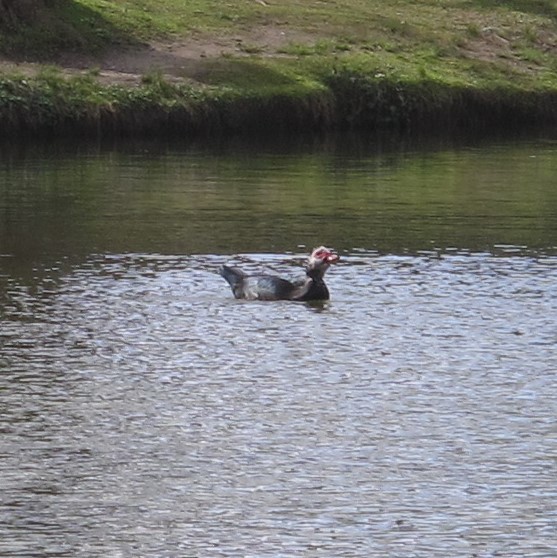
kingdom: Animalia
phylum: Chordata
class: Aves
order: Anseriformes
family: Anatidae
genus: Cairina
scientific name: Cairina moschata
